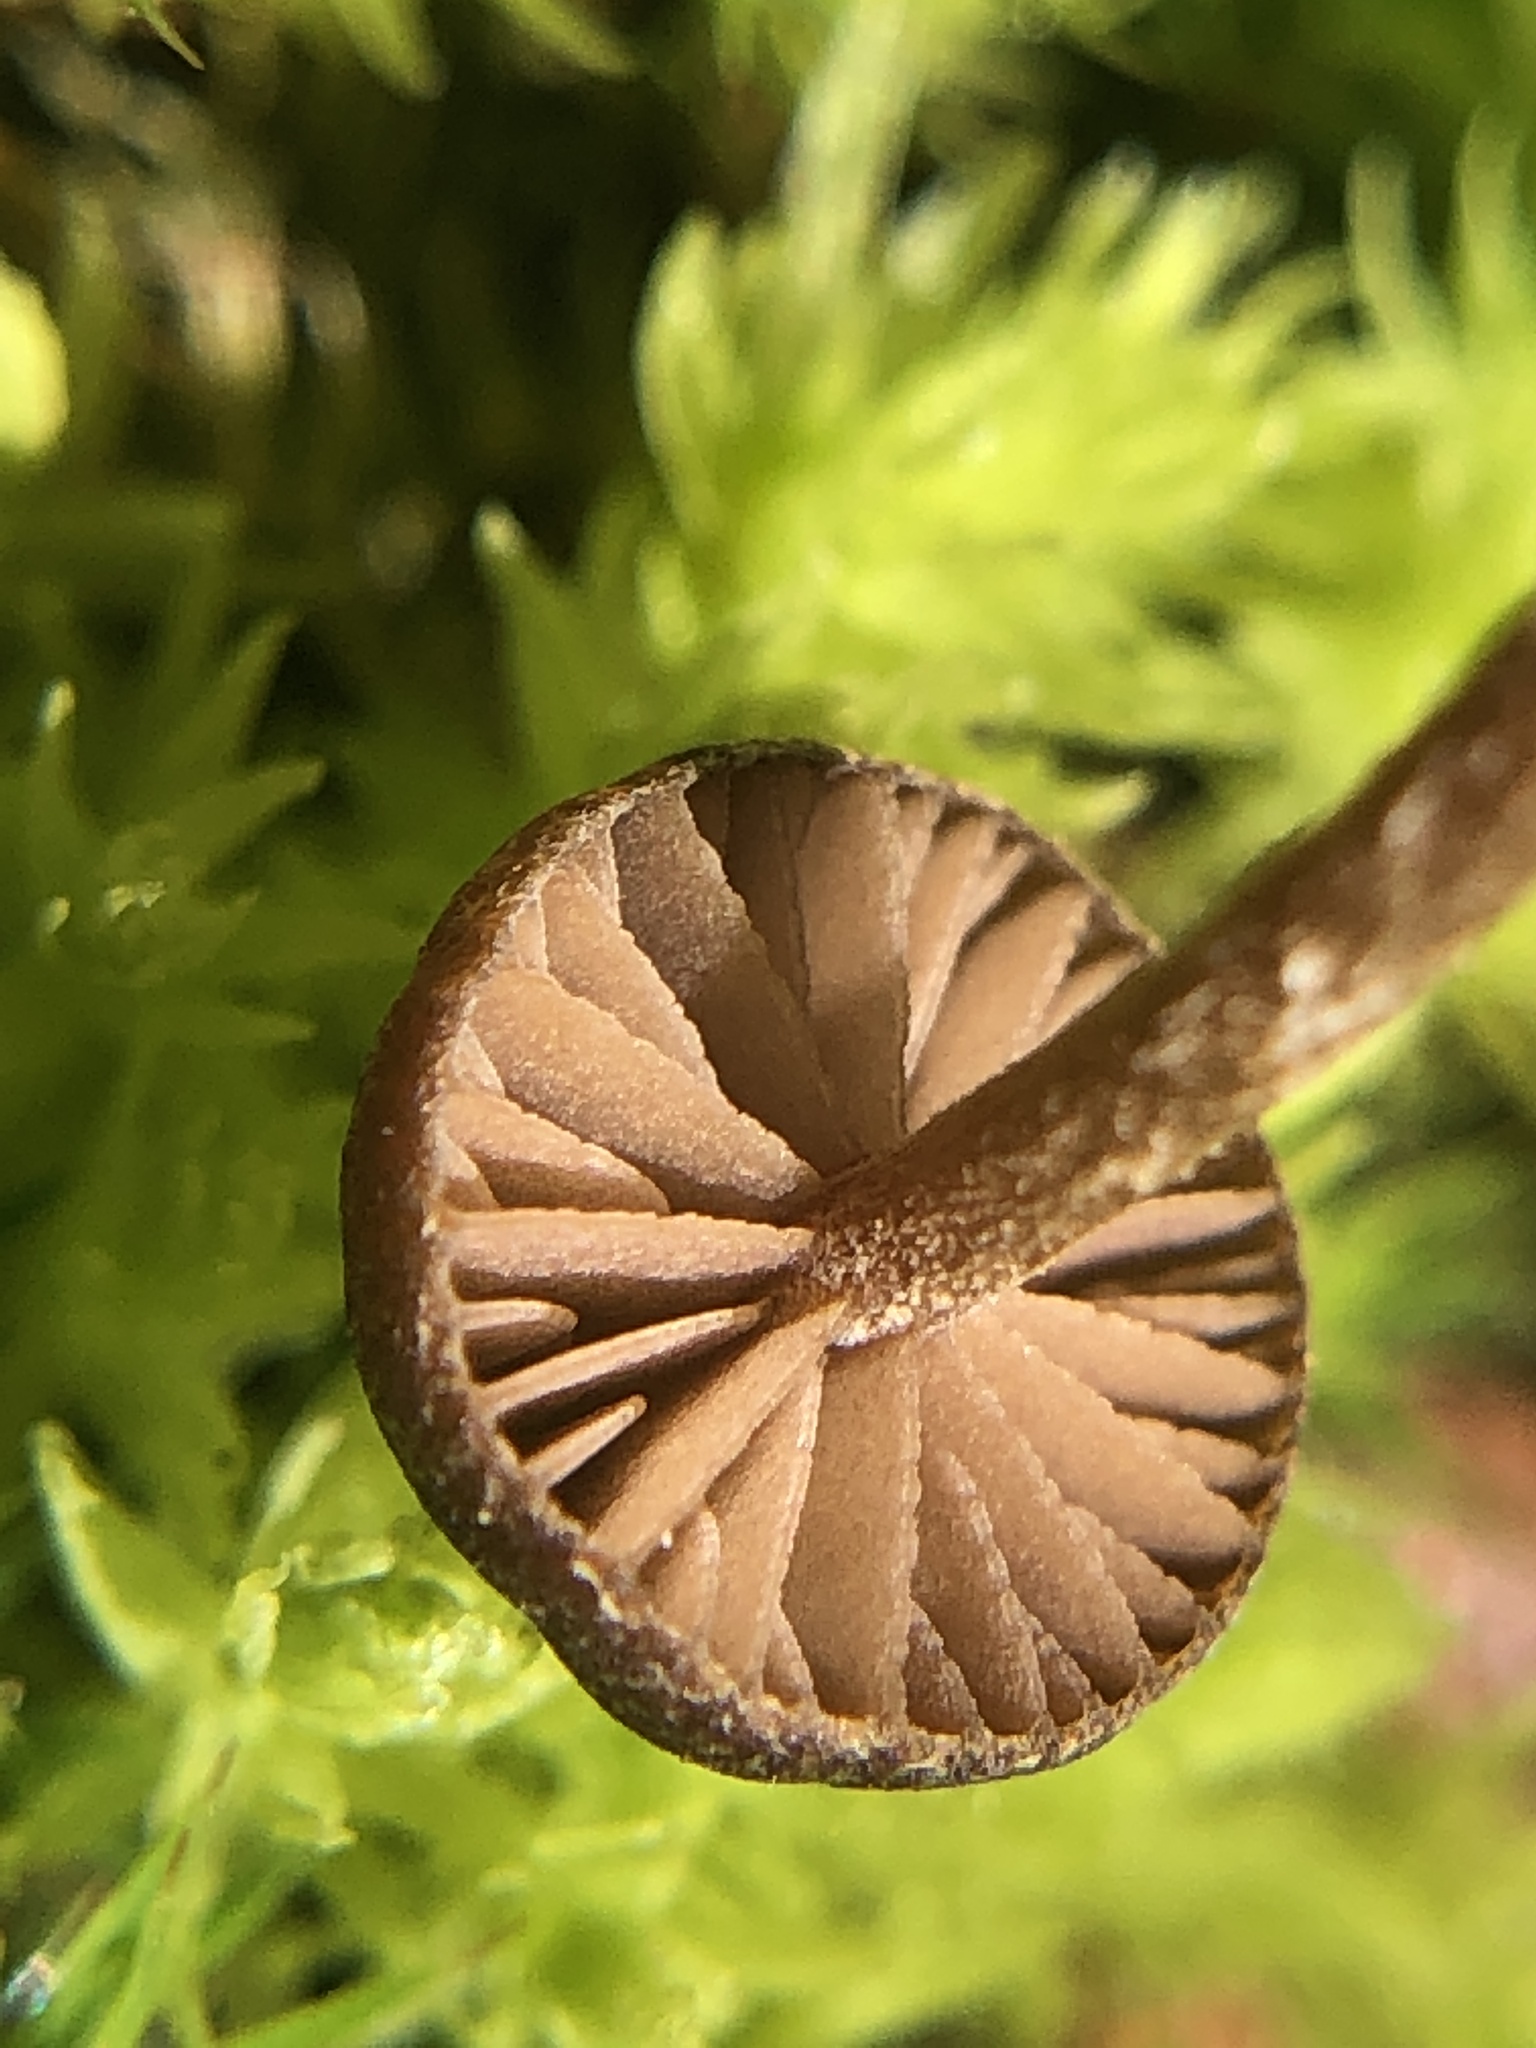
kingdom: Fungi
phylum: Basidiomycota
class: Agaricomycetes
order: Agaricales
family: Strophariaceae
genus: Deconica
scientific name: Deconica montana
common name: Mountain moss deconica
